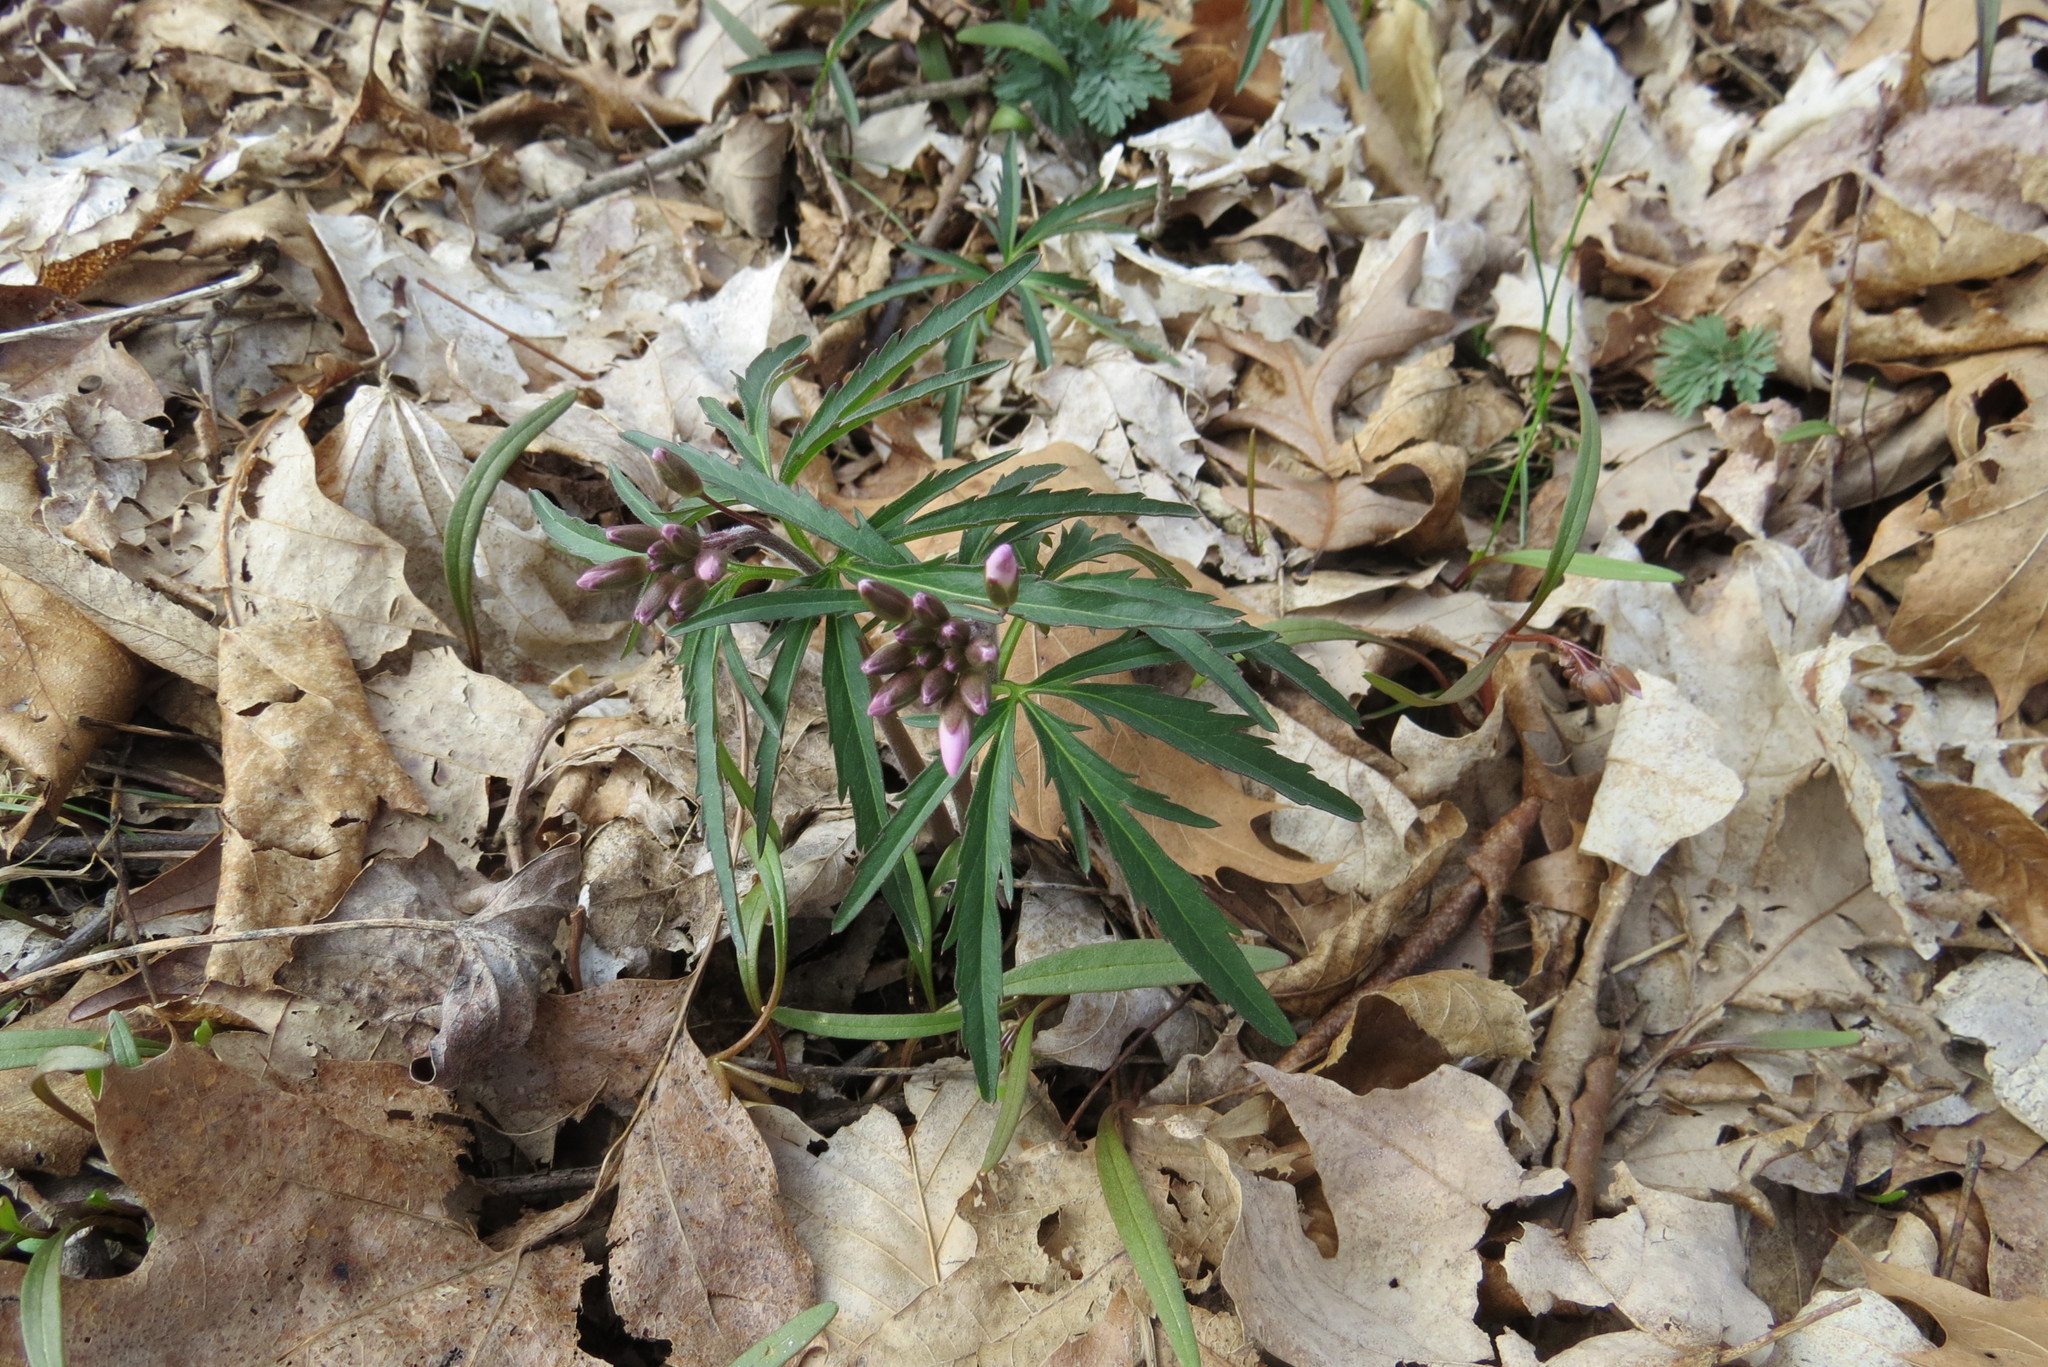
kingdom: Plantae
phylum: Tracheophyta
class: Magnoliopsida
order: Brassicales
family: Brassicaceae
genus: Cardamine
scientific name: Cardamine concatenata
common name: Cut-leaf toothcup
